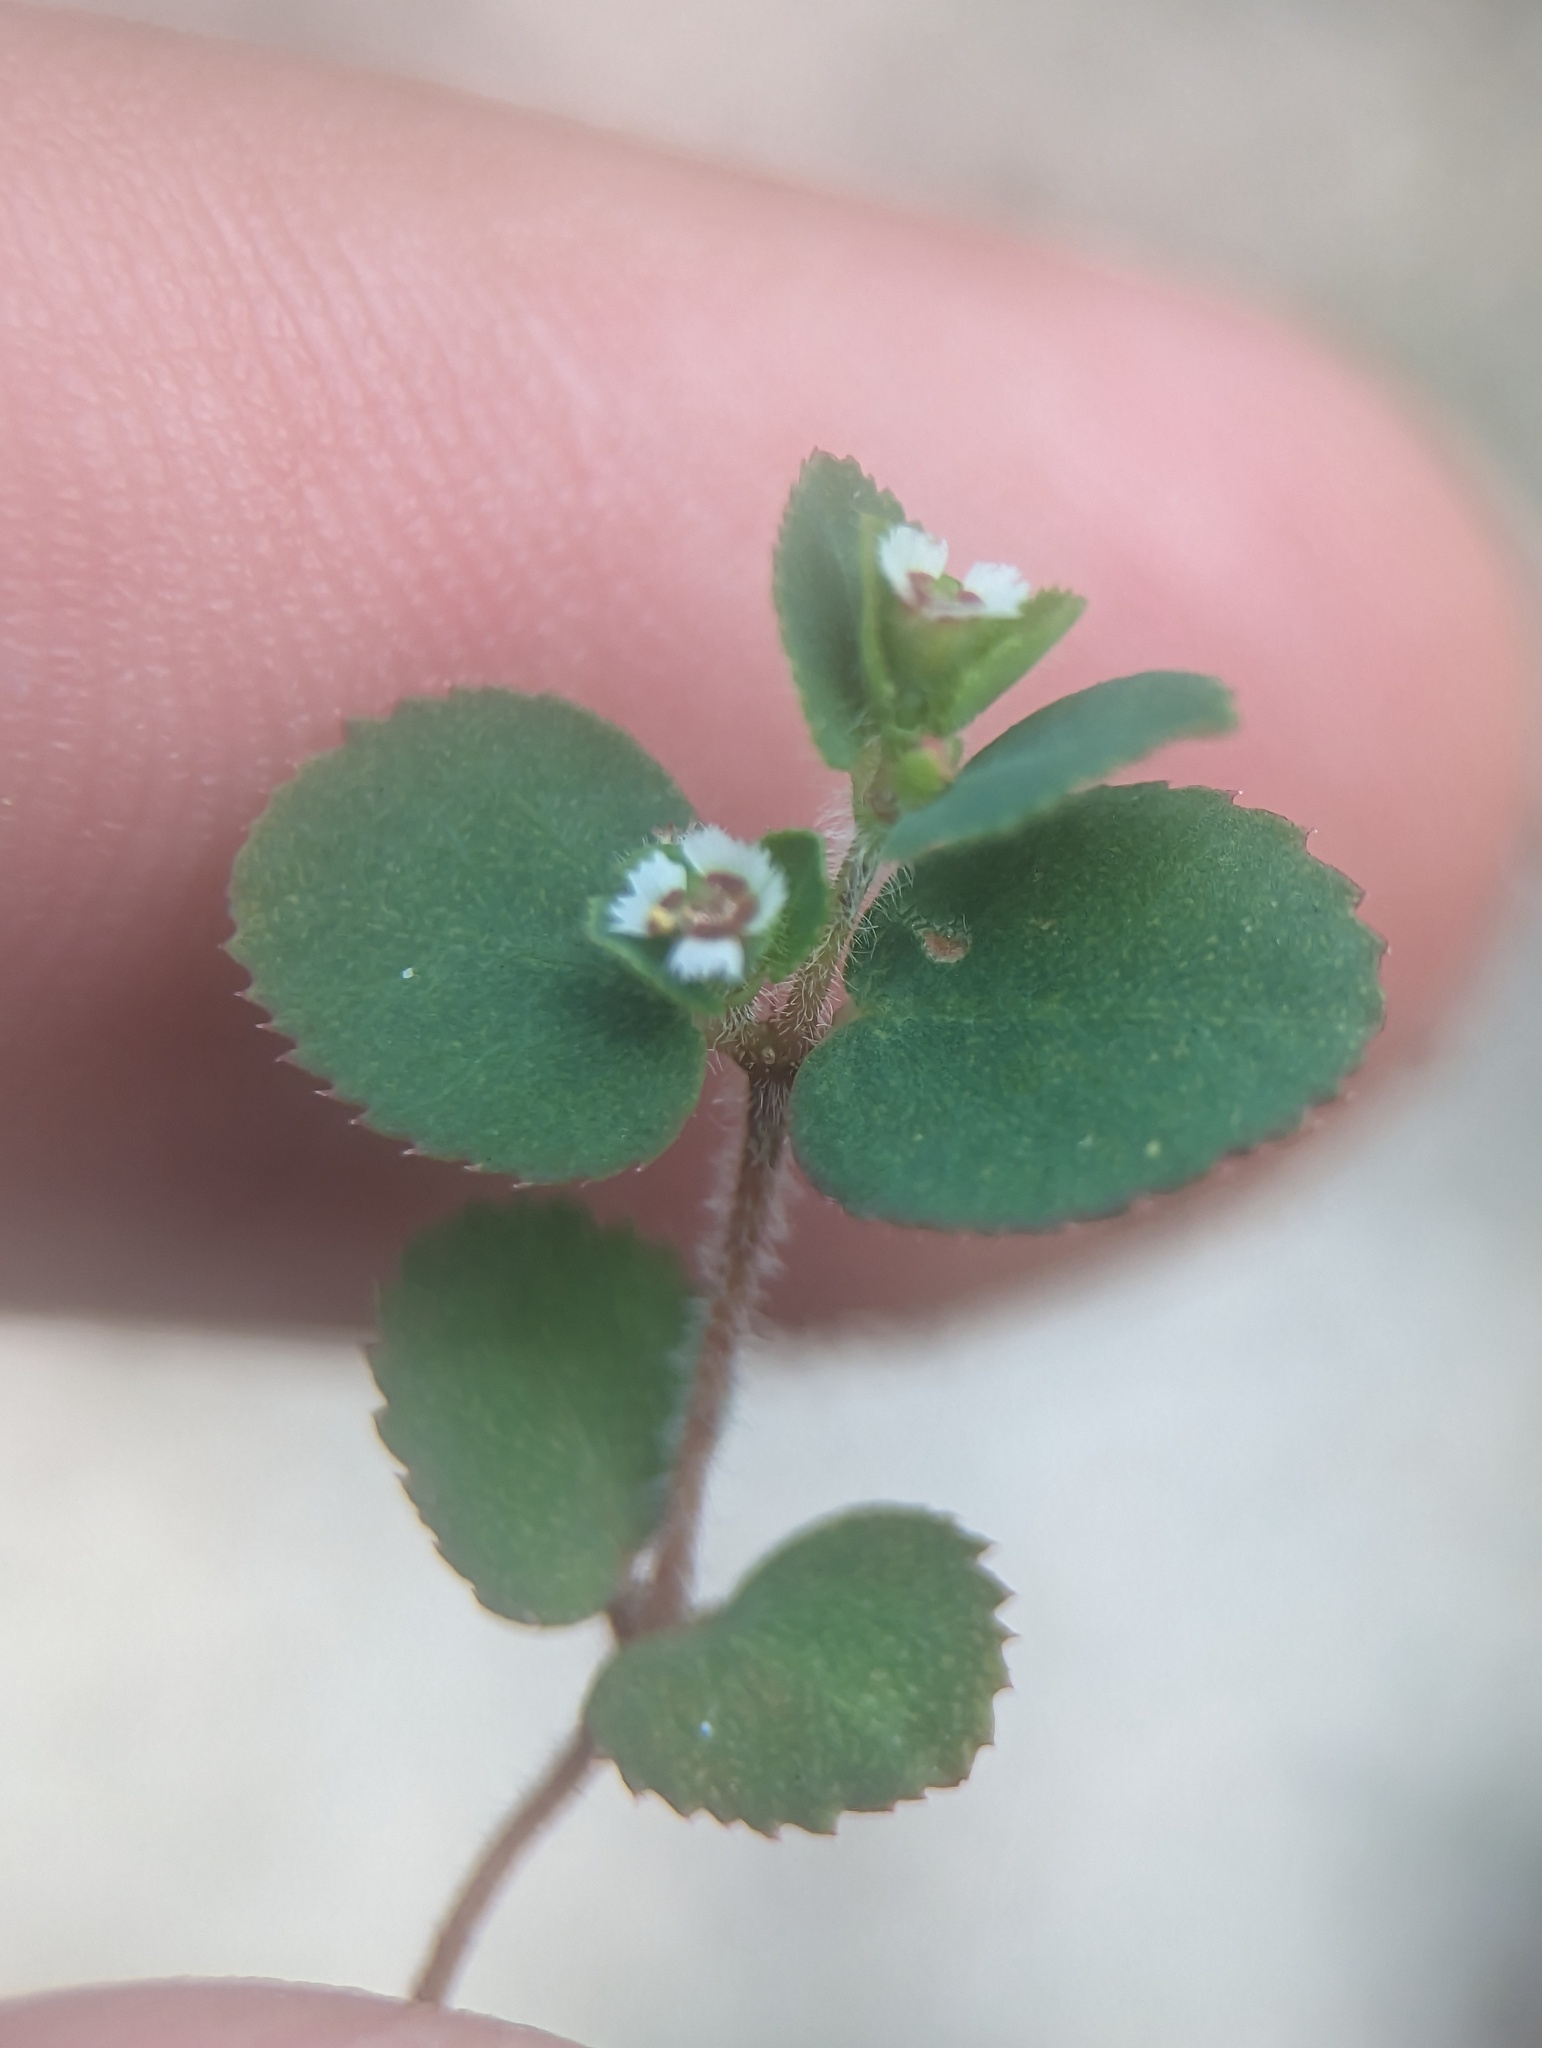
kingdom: Plantae
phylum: Tracheophyta
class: Magnoliopsida
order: Malpighiales
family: Euphorbiaceae
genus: Euphorbia
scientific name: Euphorbia dentosa
